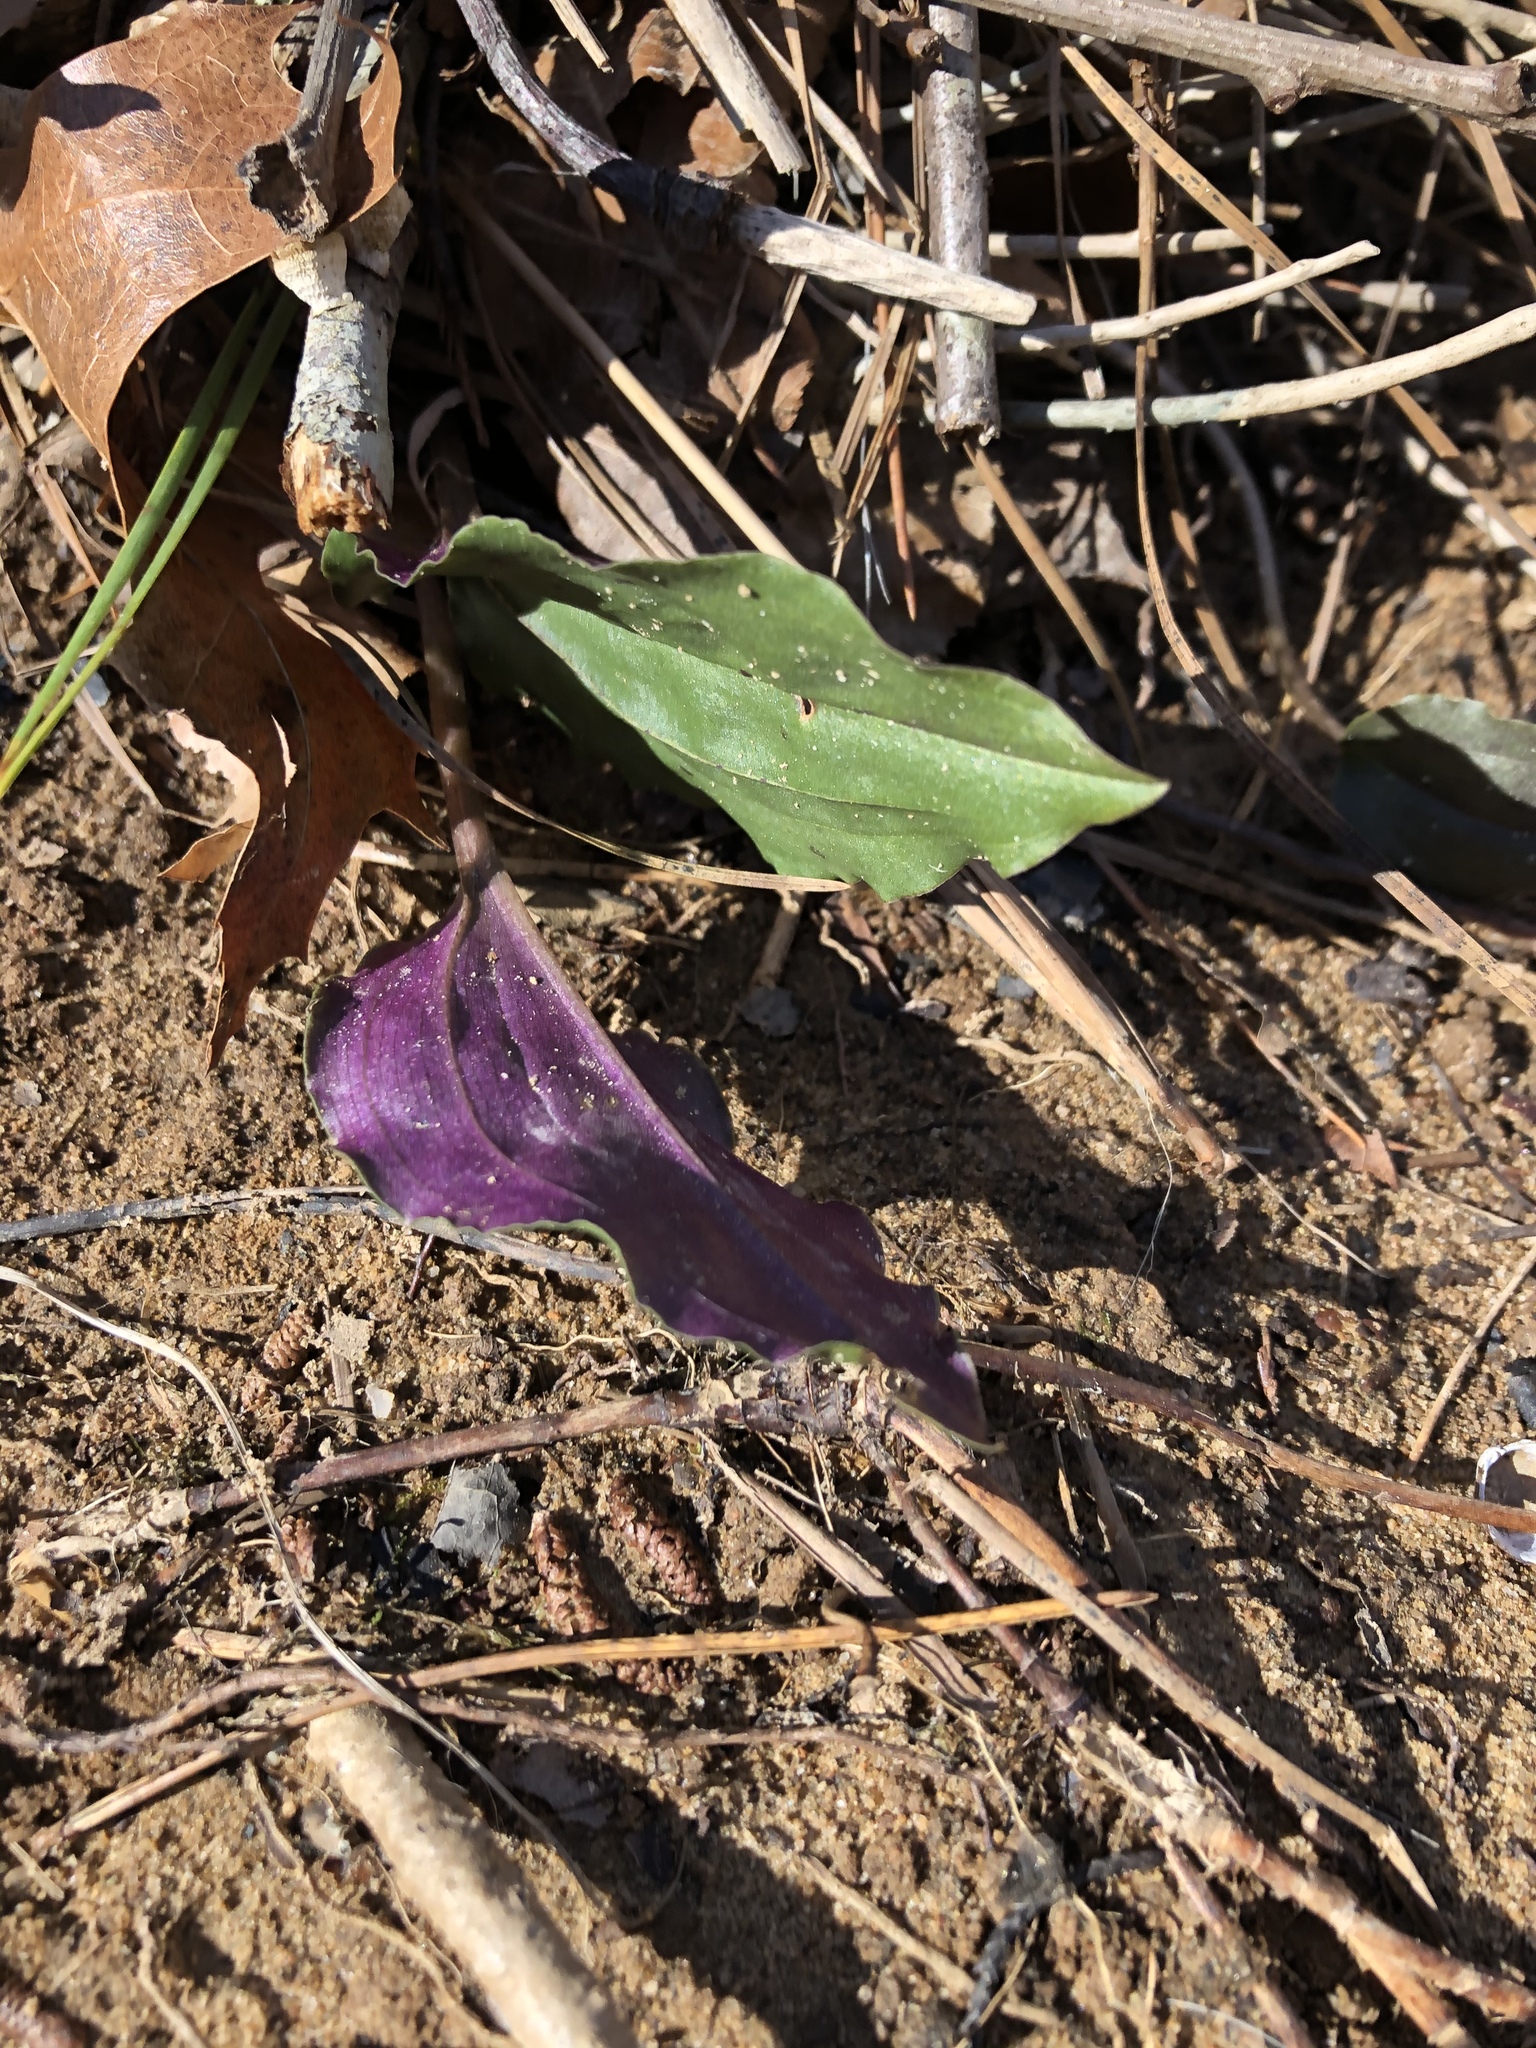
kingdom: Plantae
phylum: Tracheophyta
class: Liliopsida
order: Asparagales
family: Orchidaceae
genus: Tipularia
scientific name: Tipularia discolor
